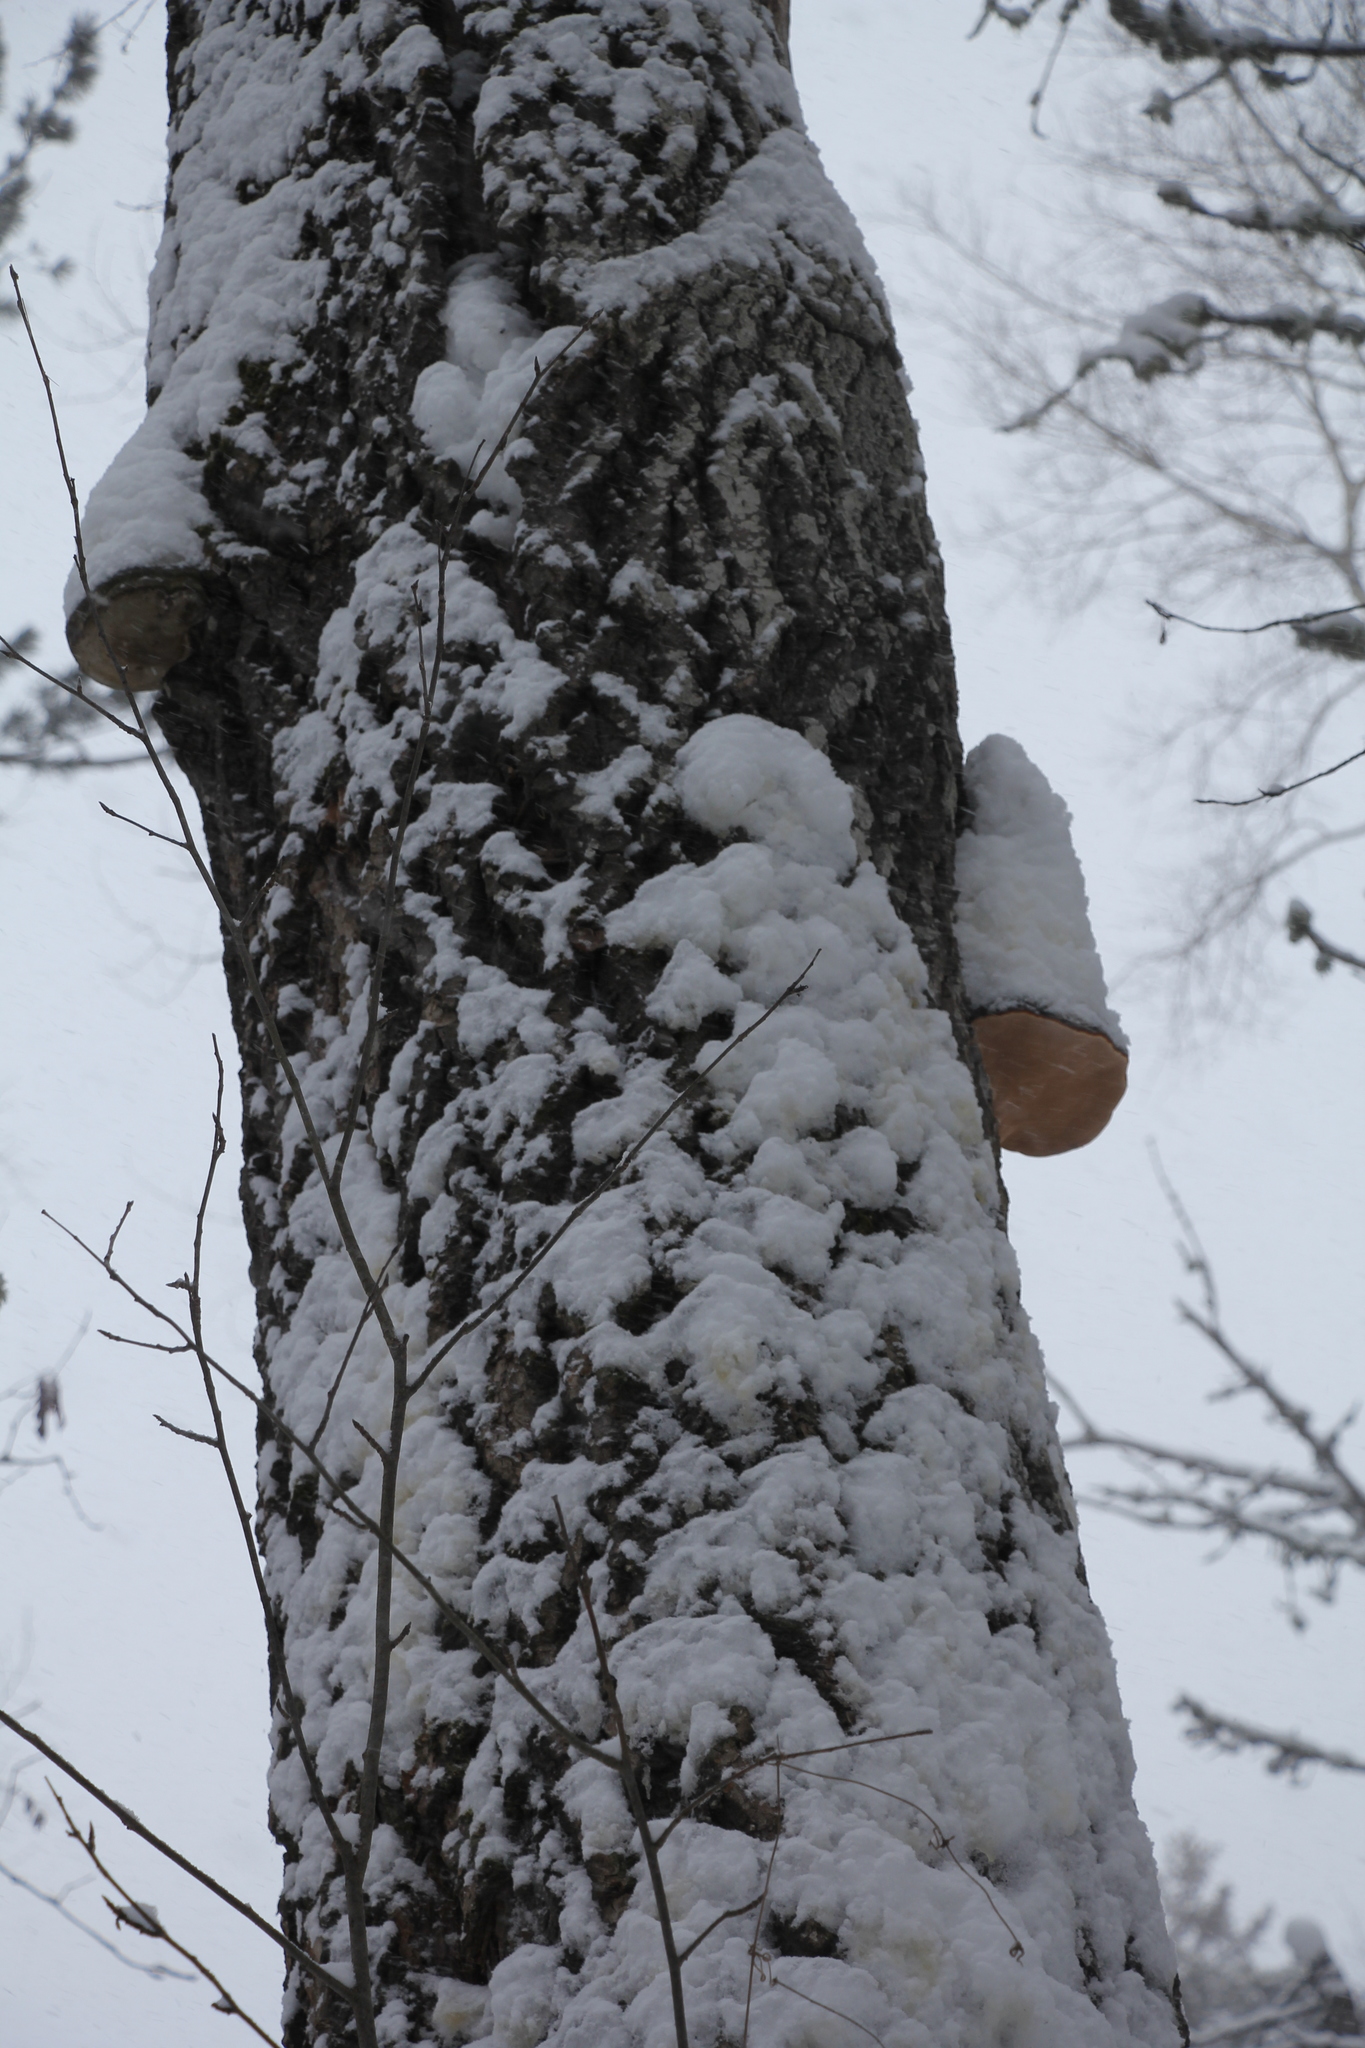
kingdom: Fungi
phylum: Basidiomycota
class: Agaricomycetes
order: Polyporales
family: Polyporaceae
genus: Fomes
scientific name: Fomes fomentarius
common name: Hoof fungus
